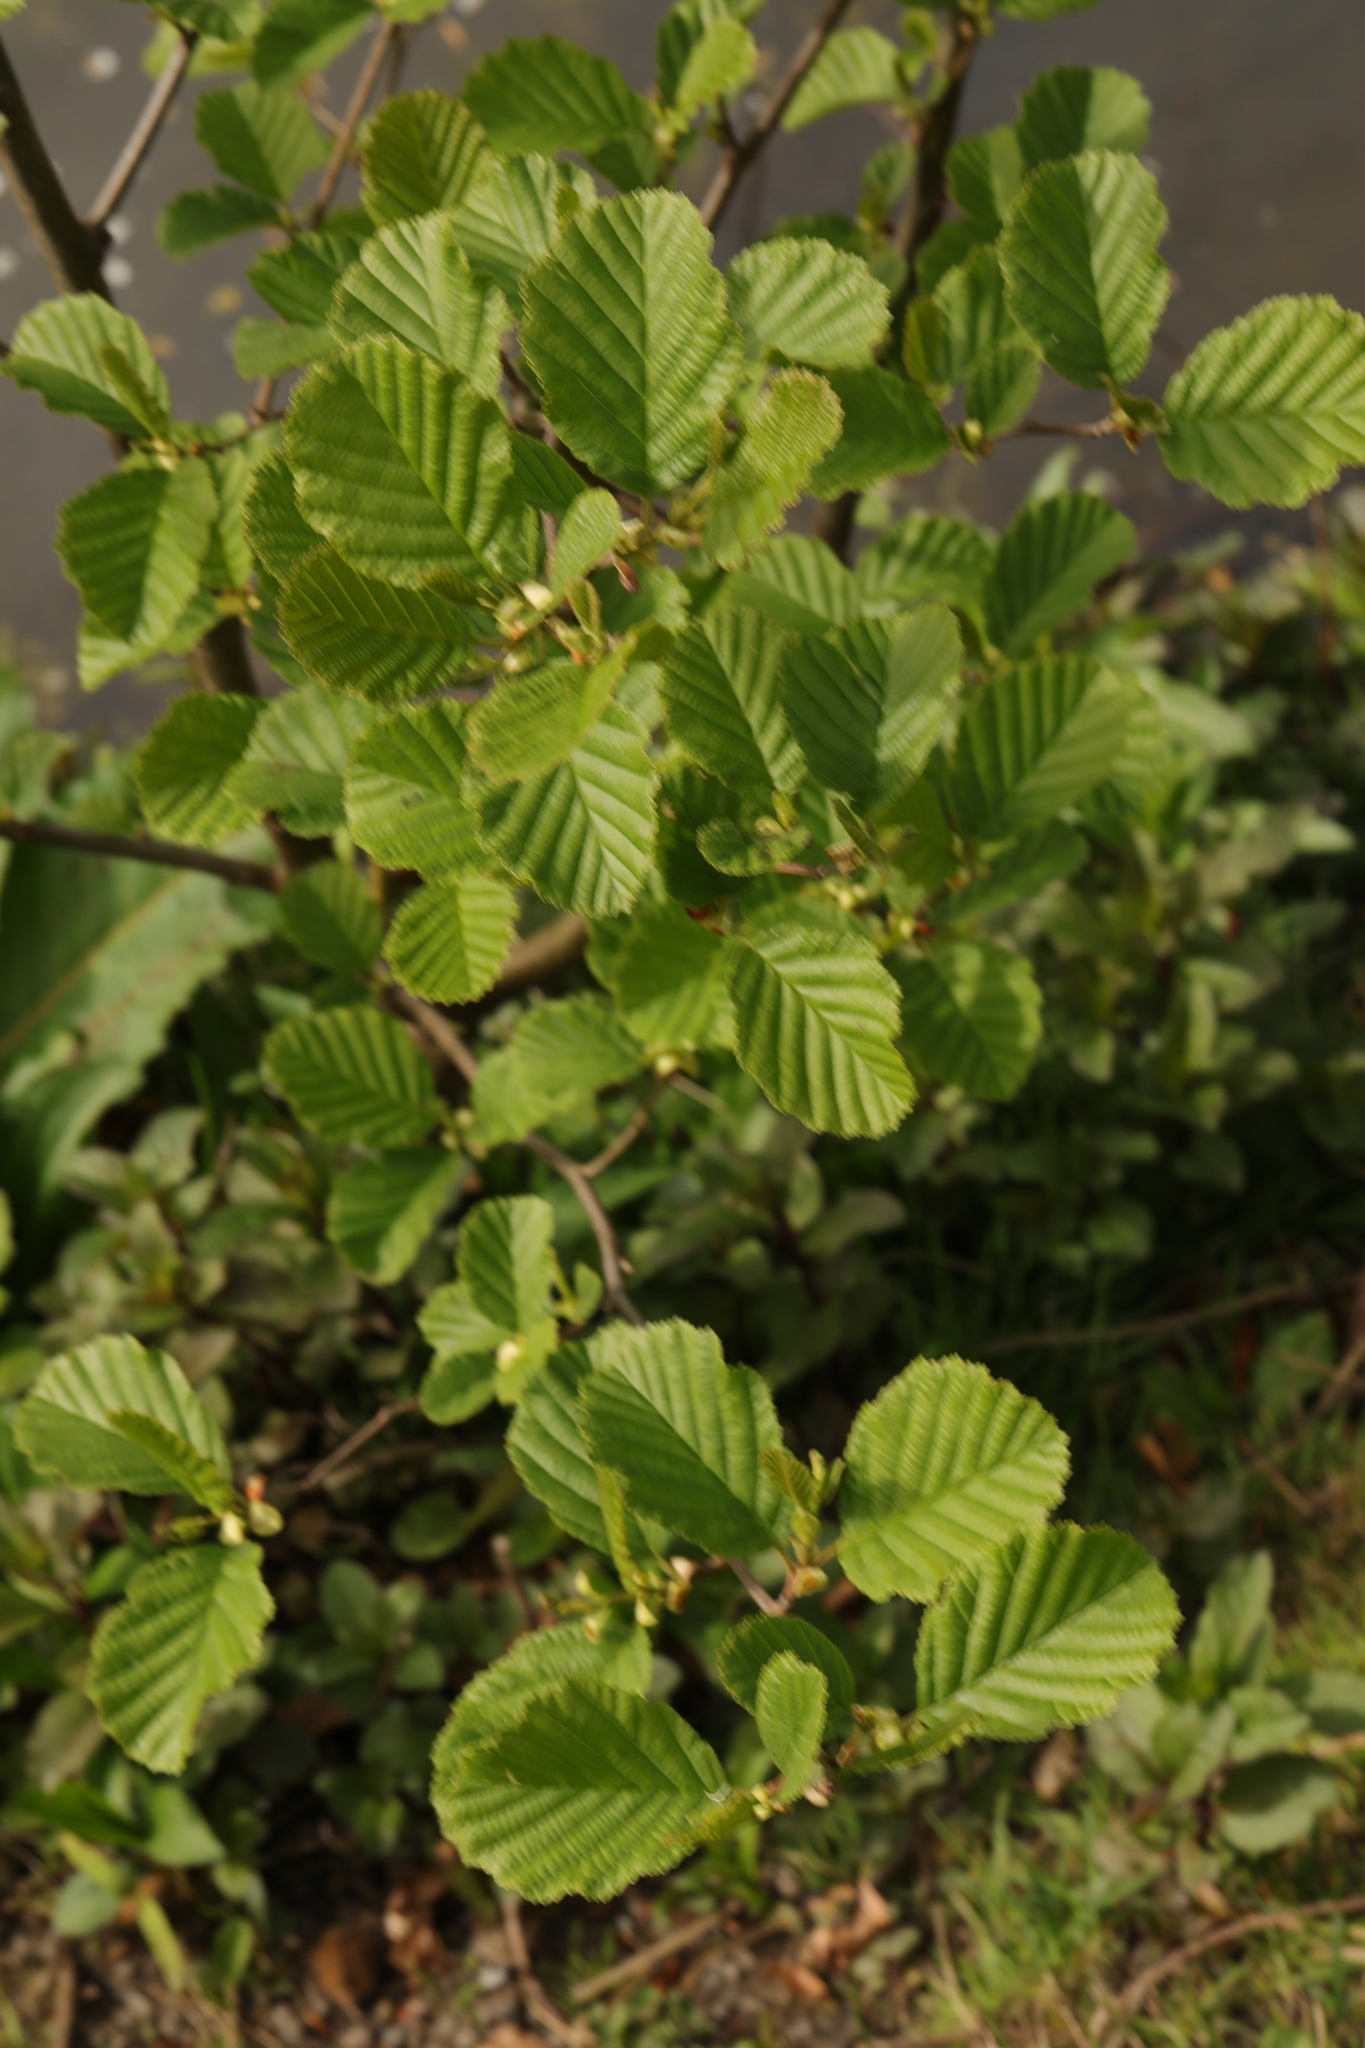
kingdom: Plantae
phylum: Tracheophyta
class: Magnoliopsida
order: Fagales
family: Betulaceae
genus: Alnus
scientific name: Alnus glutinosa
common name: Black alder
